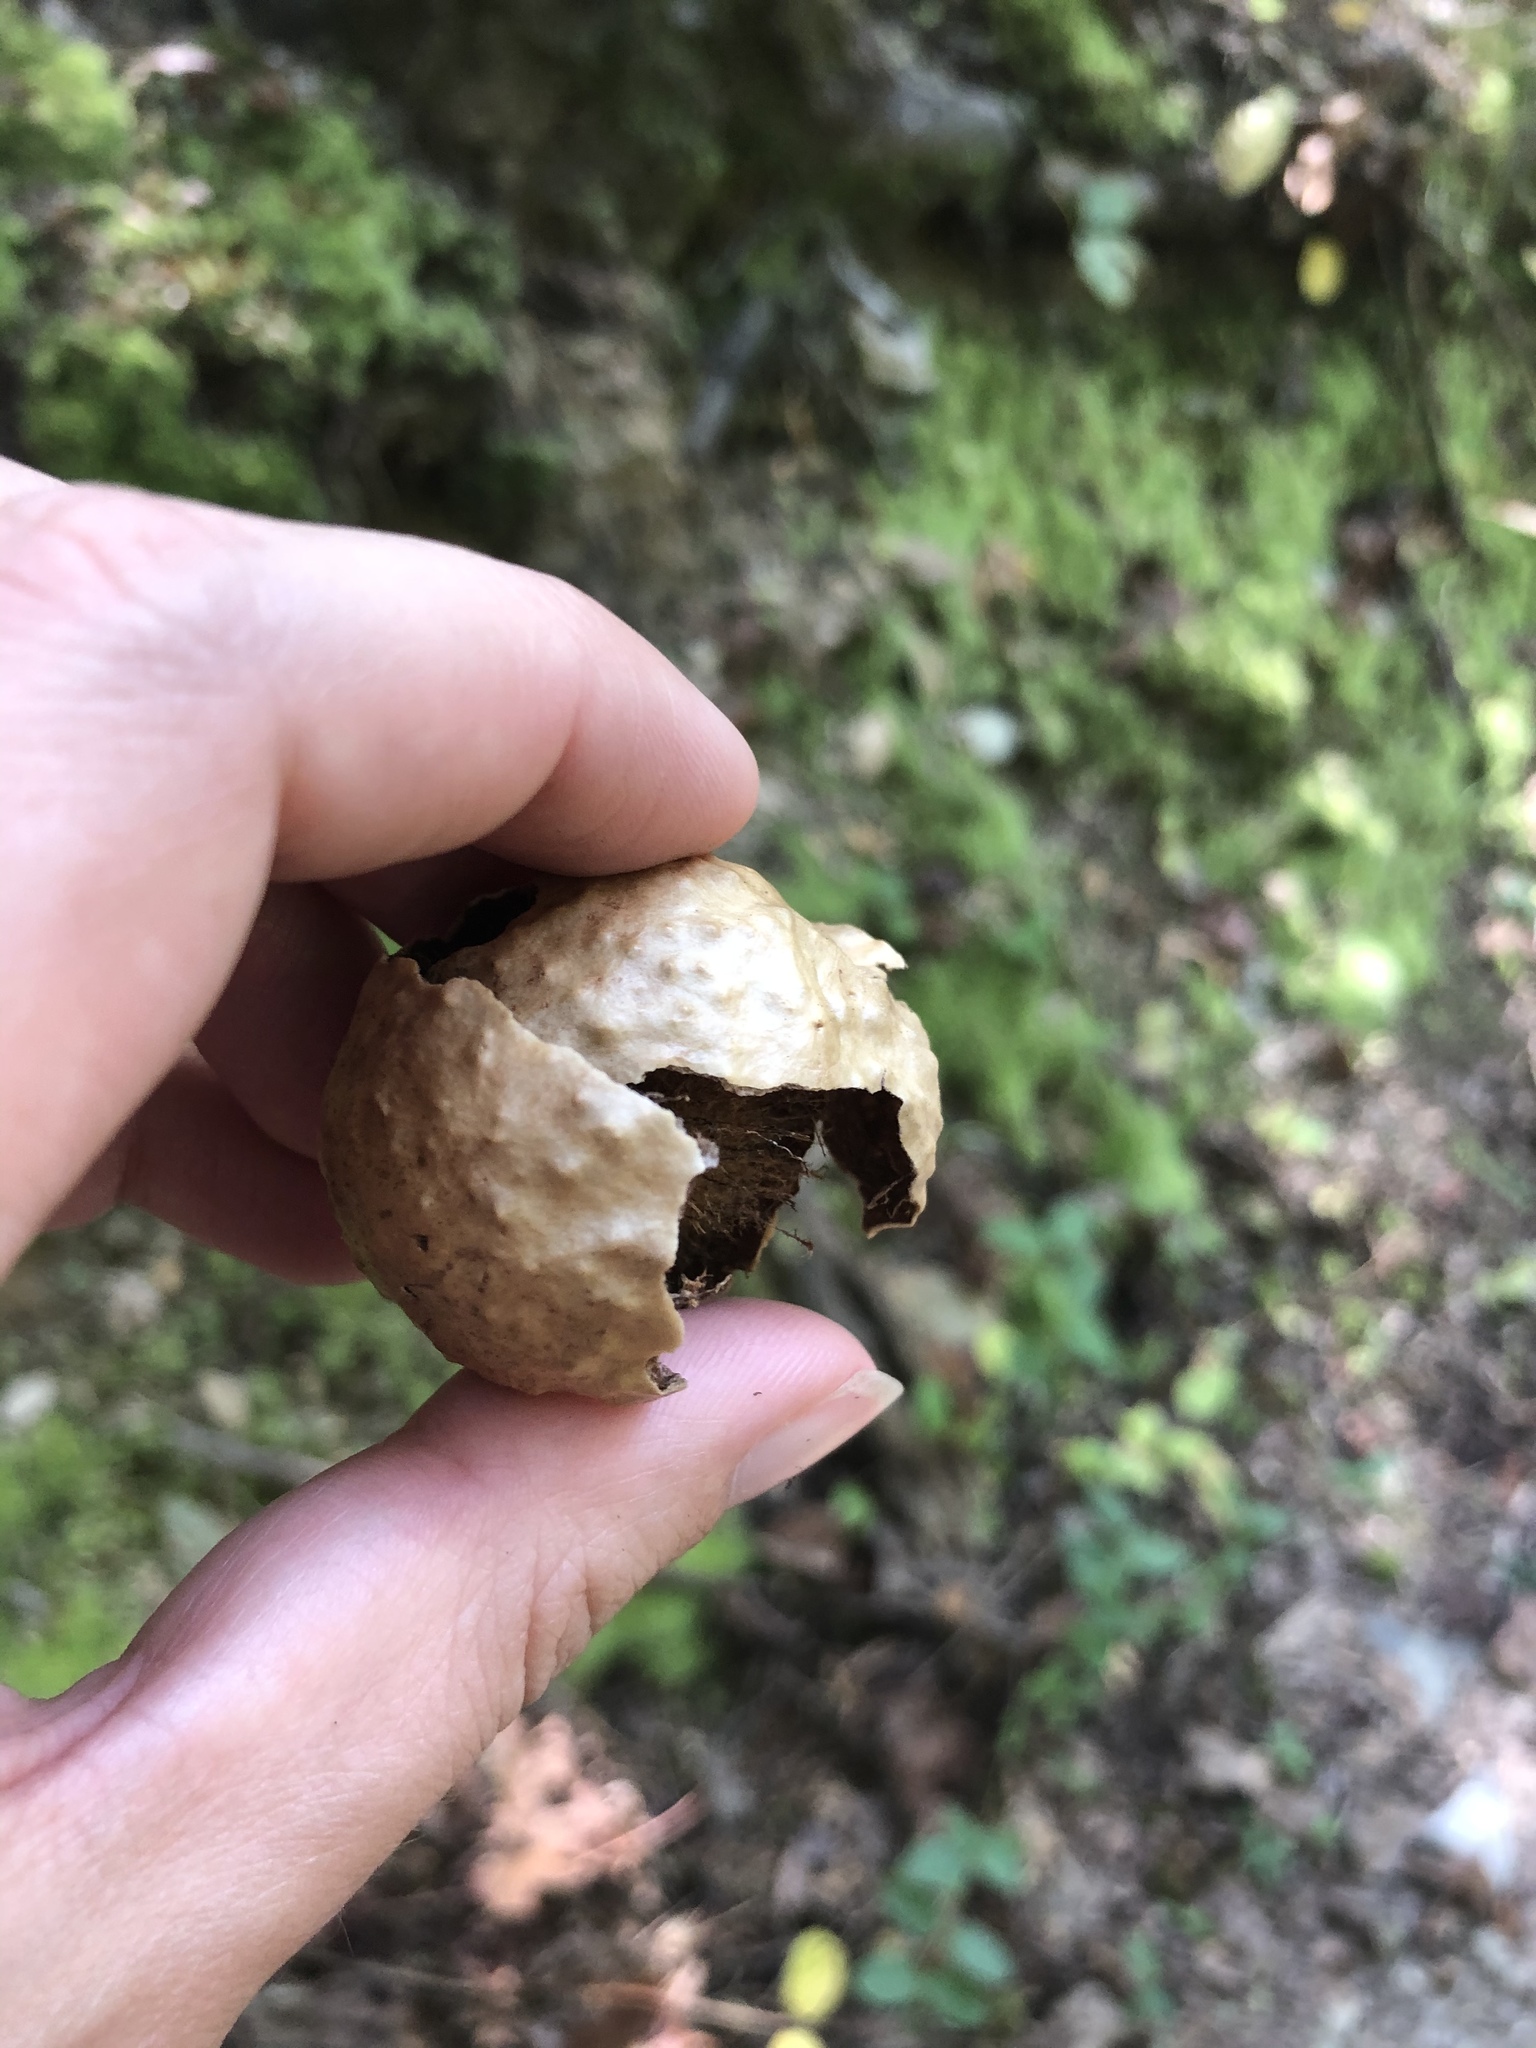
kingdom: Animalia
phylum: Arthropoda
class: Insecta
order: Hymenoptera
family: Cynipidae
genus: Amphibolips
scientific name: Amphibolips
